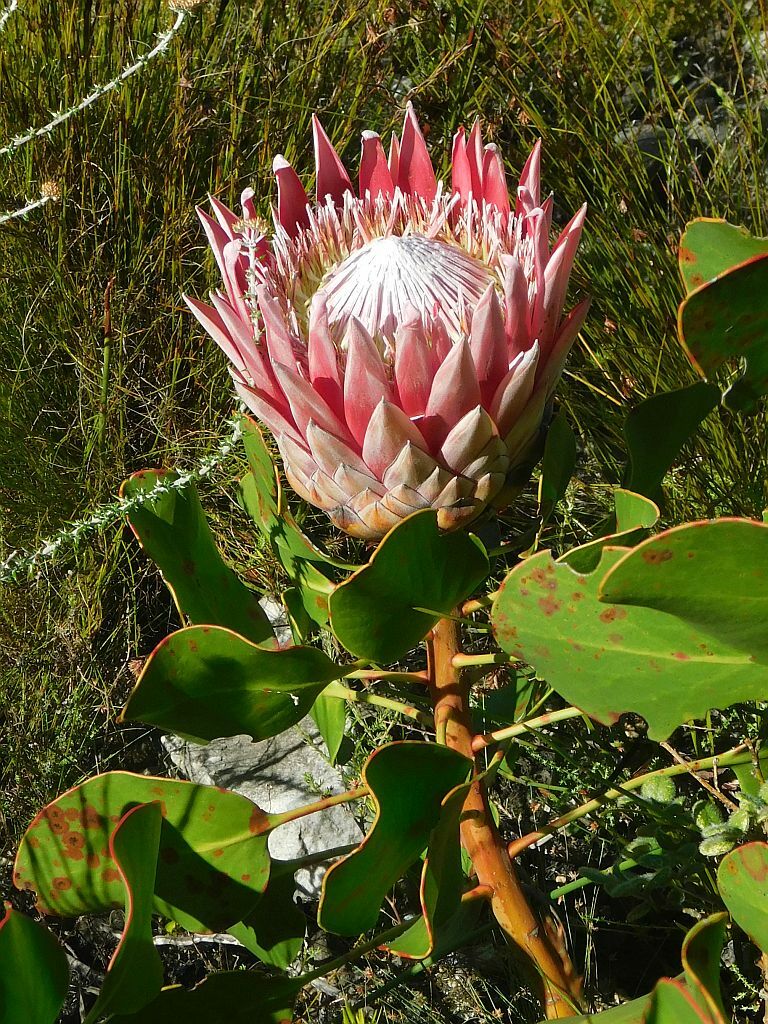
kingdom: Plantae
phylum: Tracheophyta
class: Magnoliopsida
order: Proteales
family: Proteaceae
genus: Protea
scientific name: Protea cynaroides
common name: King protea
